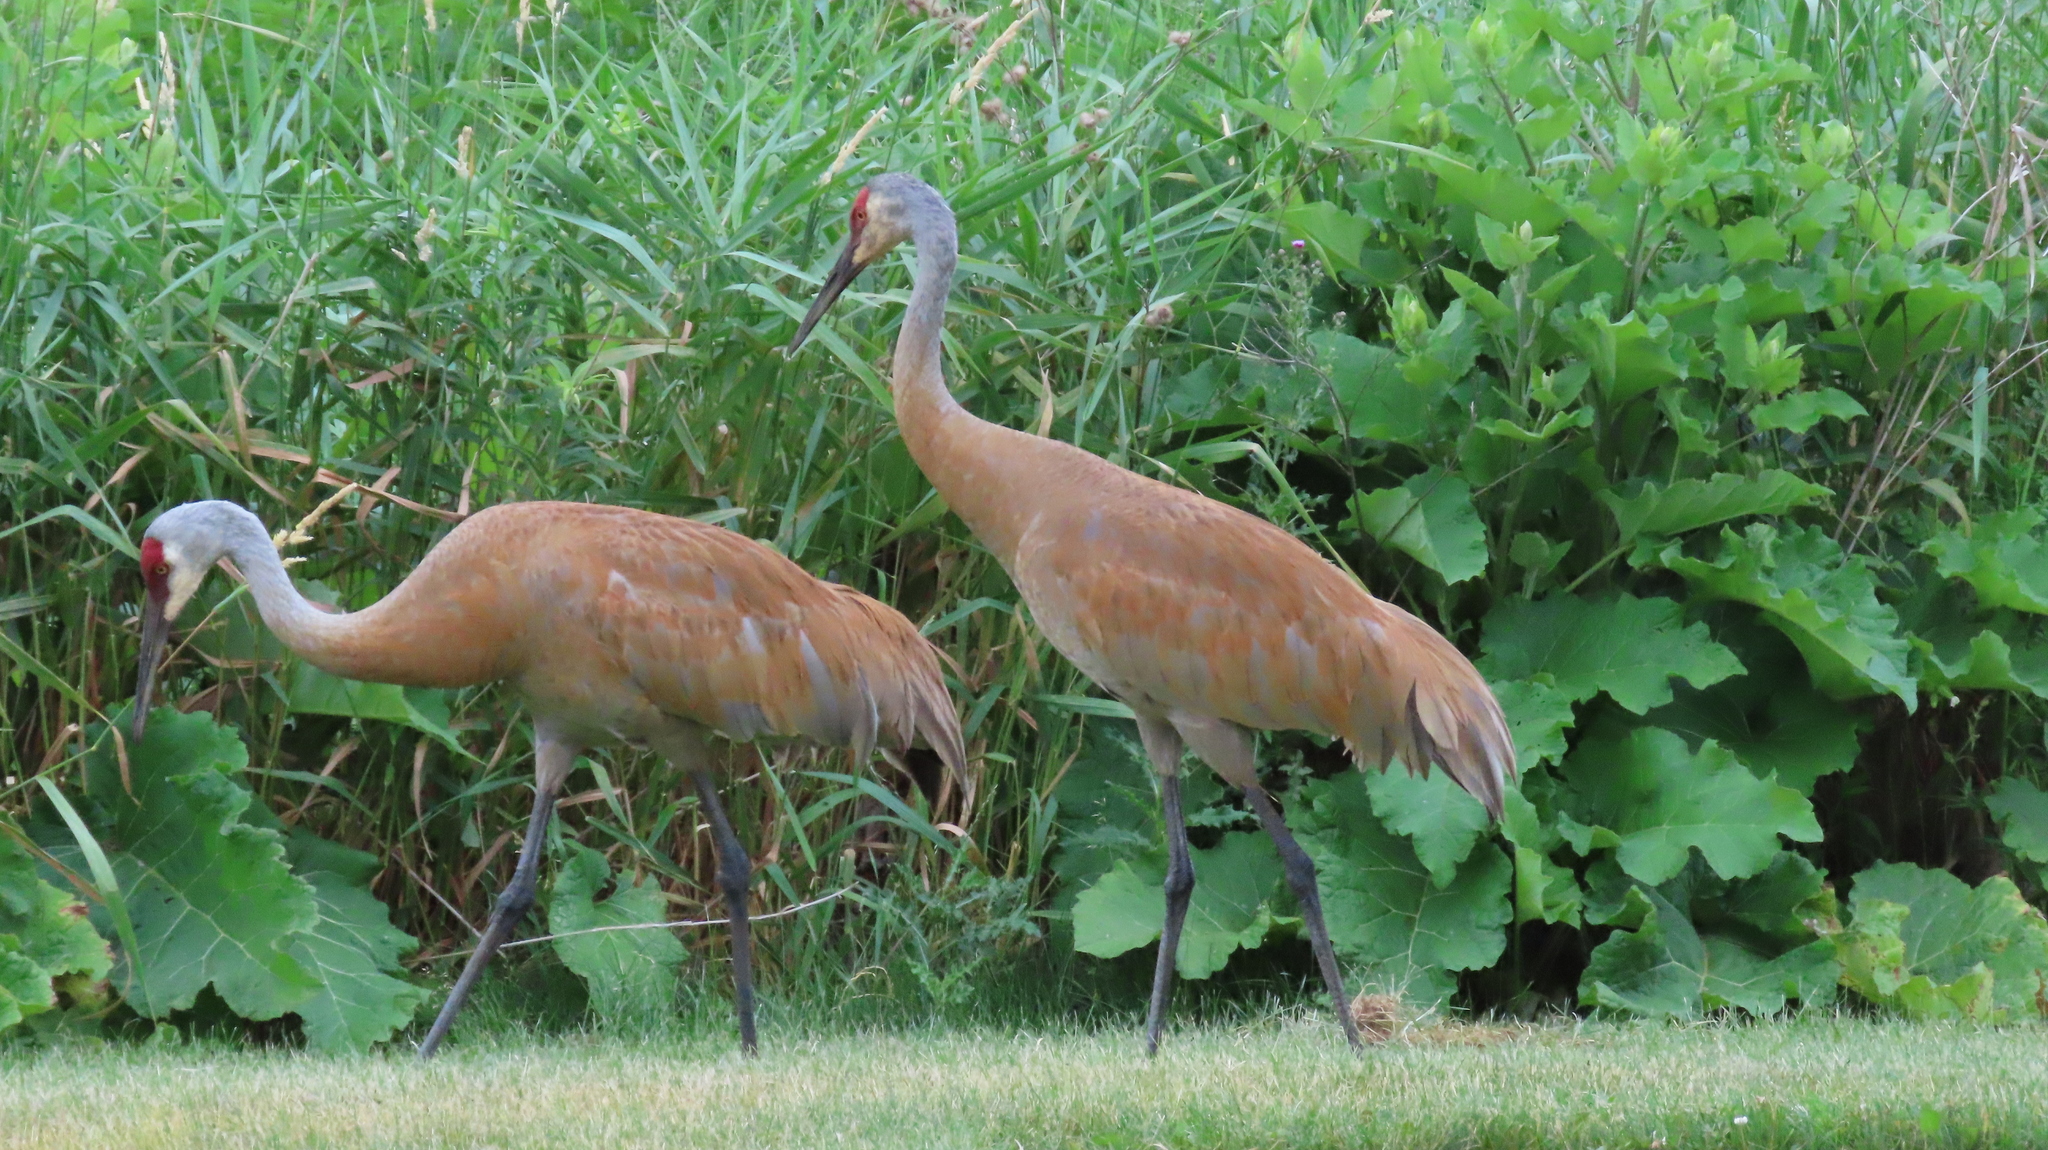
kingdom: Animalia
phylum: Chordata
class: Aves
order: Gruiformes
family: Gruidae
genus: Grus
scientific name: Grus canadensis
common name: Sandhill crane
